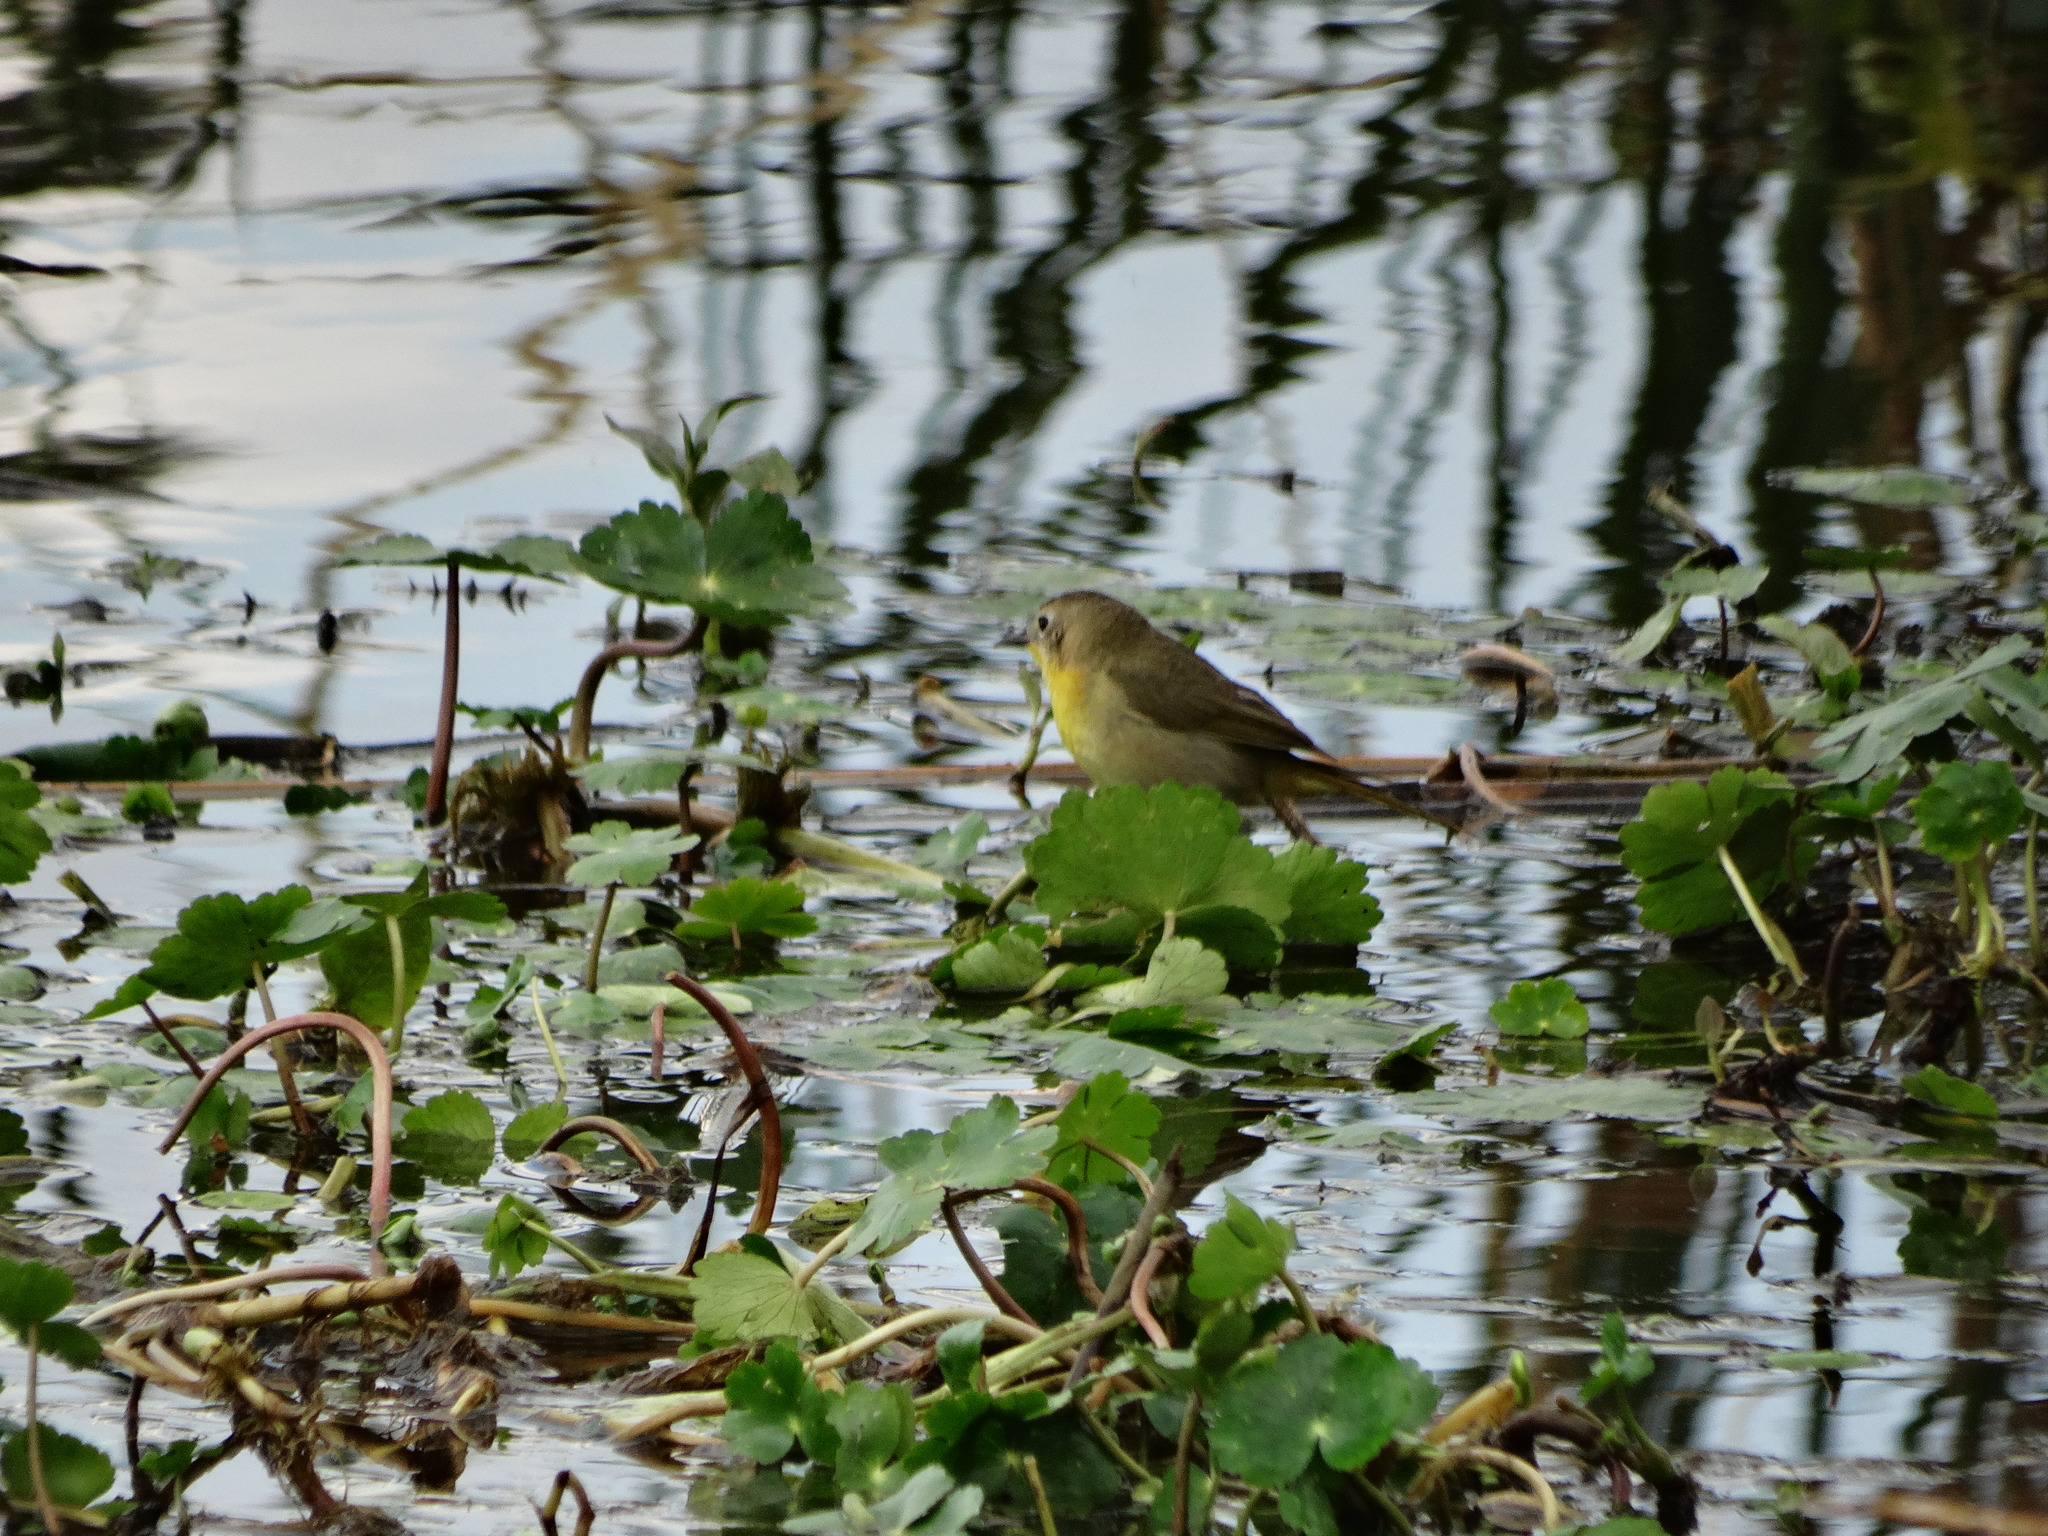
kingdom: Animalia
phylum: Chordata
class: Aves
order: Passeriformes
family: Parulidae
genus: Geothlypis
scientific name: Geothlypis trichas
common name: Common yellowthroat
